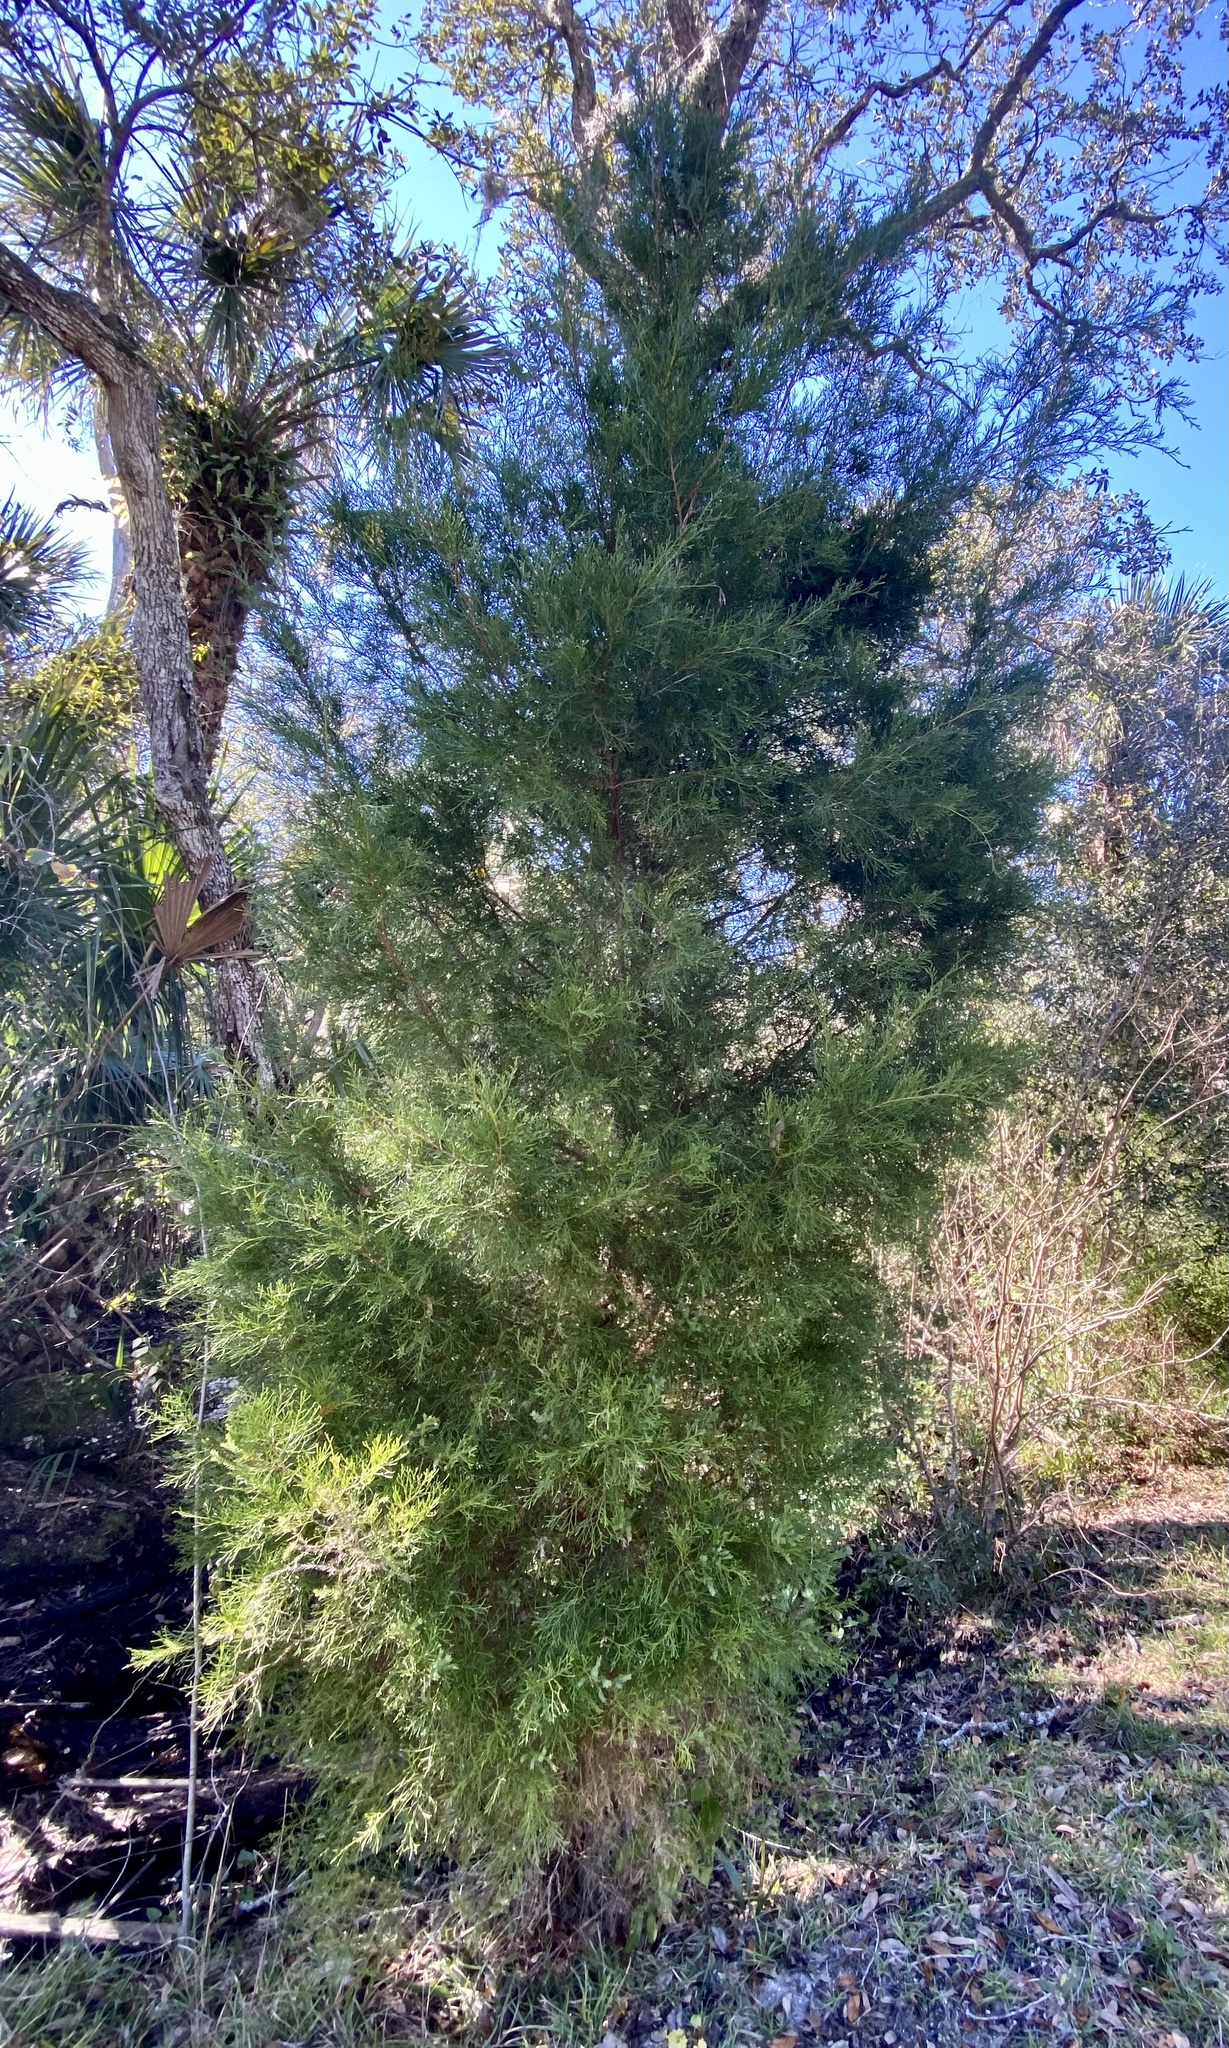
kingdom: Plantae
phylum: Tracheophyta
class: Pinopsida
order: Pinales
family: Cupressaceae
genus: Juniperus
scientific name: Juniperus virginiana
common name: Red juniper
